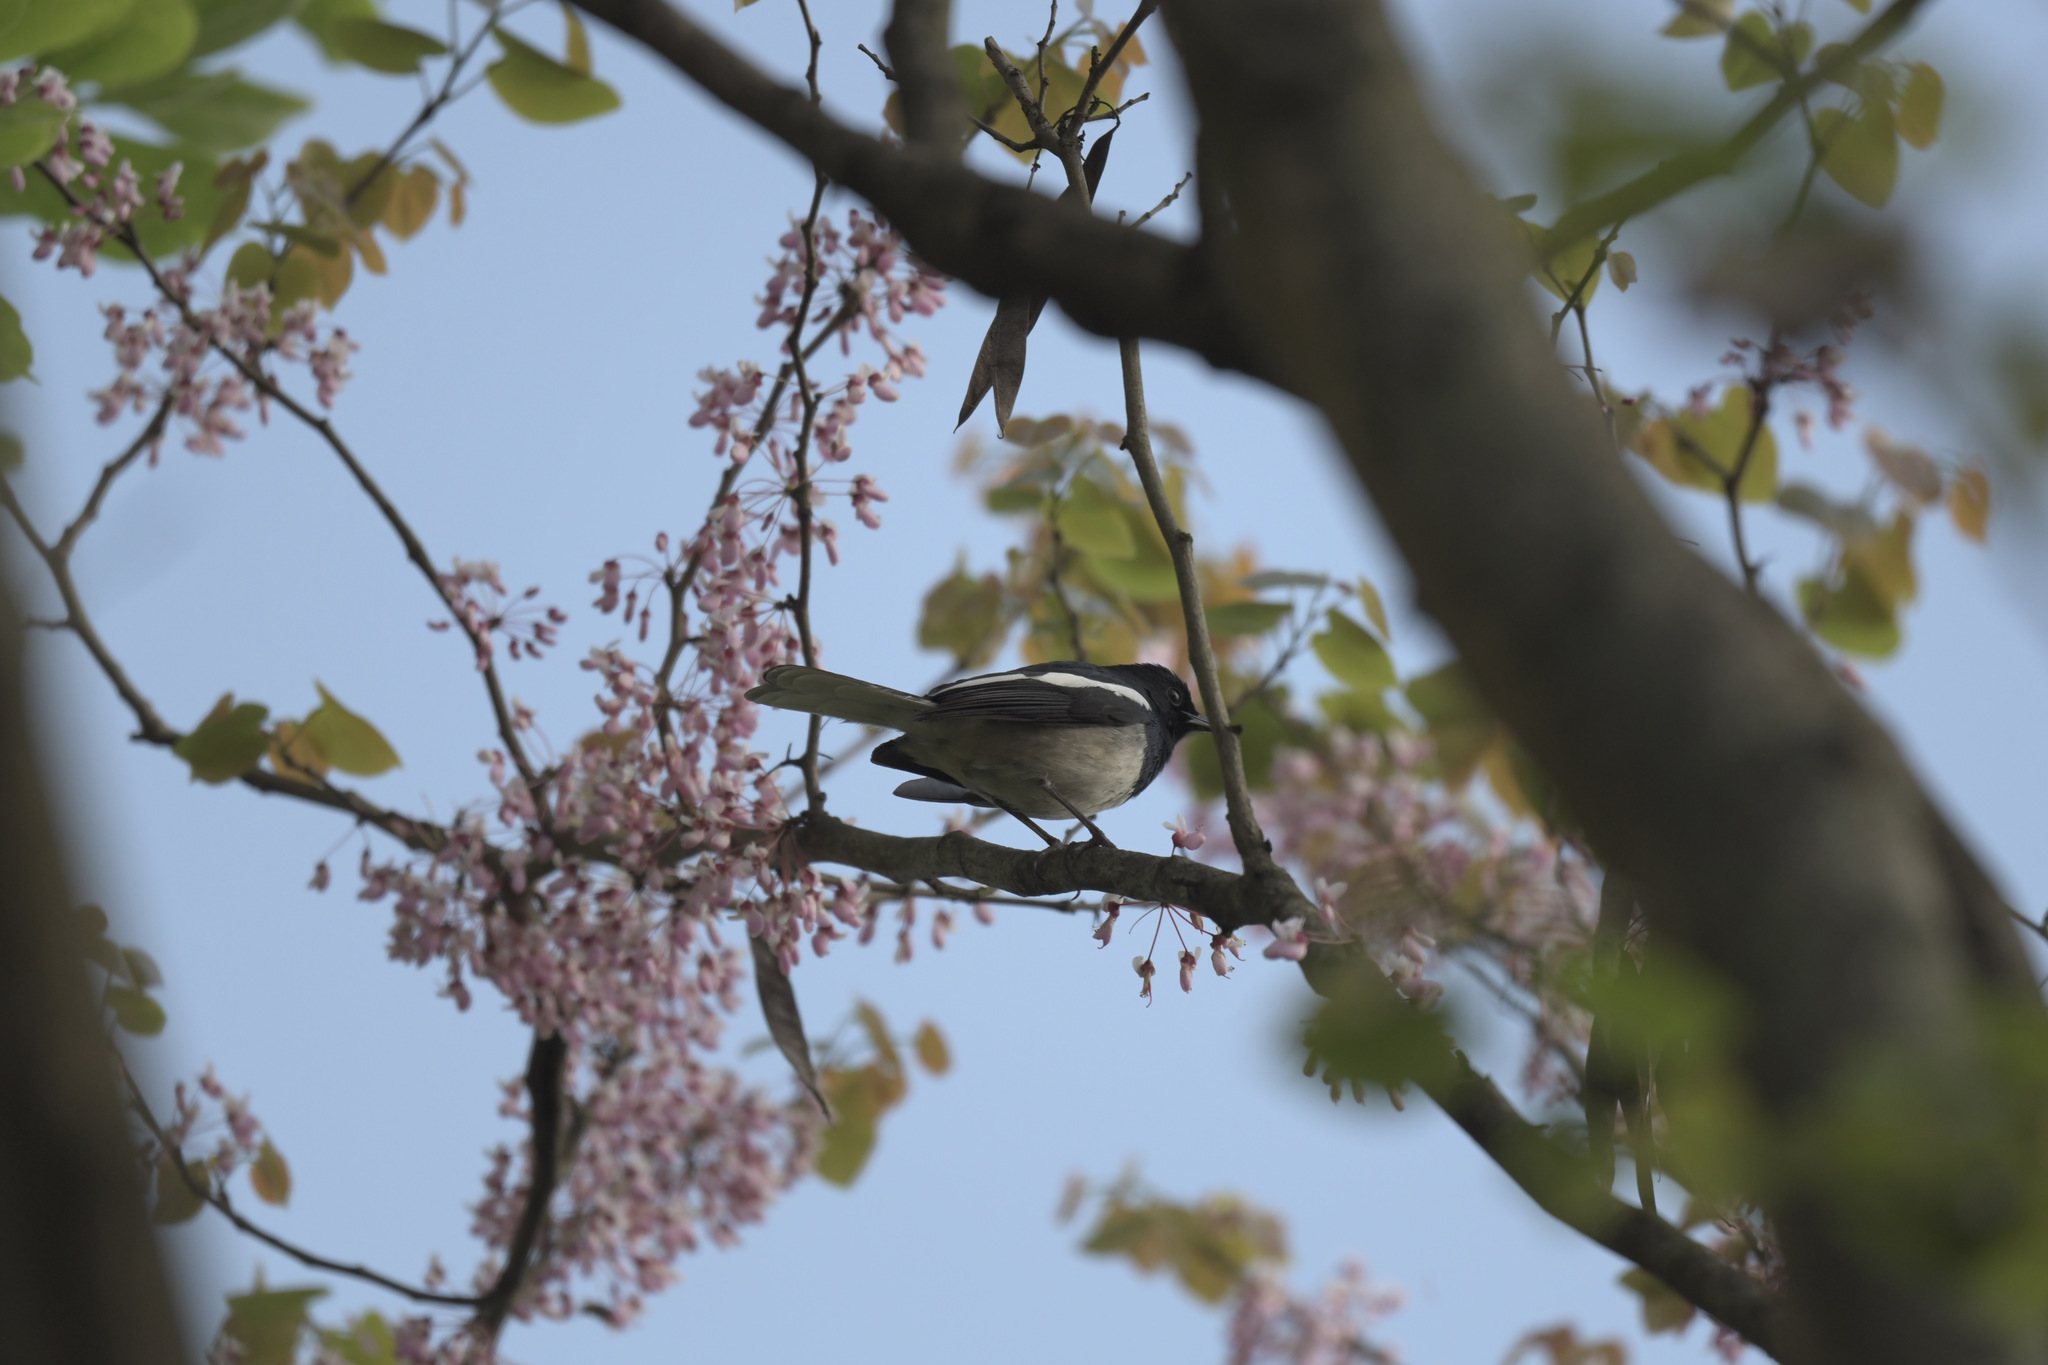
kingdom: Animalia
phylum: Chordata
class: Aves
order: Passeriformes
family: Muscicapidae
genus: Copsychus
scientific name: Copsychus saularis
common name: Oriental magpie-robin
